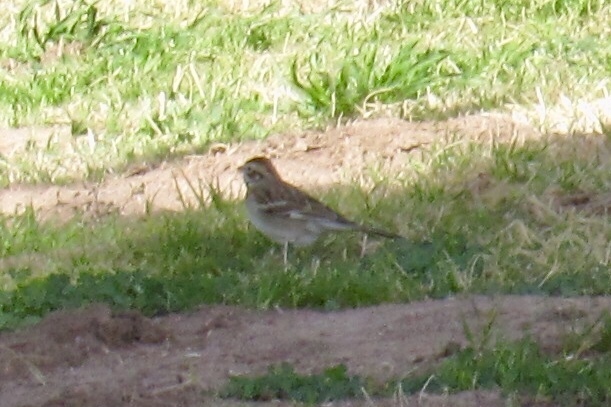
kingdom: Animalia
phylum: Chordata
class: Aves
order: Passeriformes
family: Passerellidae
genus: Chondestes
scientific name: Chondestes grammacus
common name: Lark sparrow
